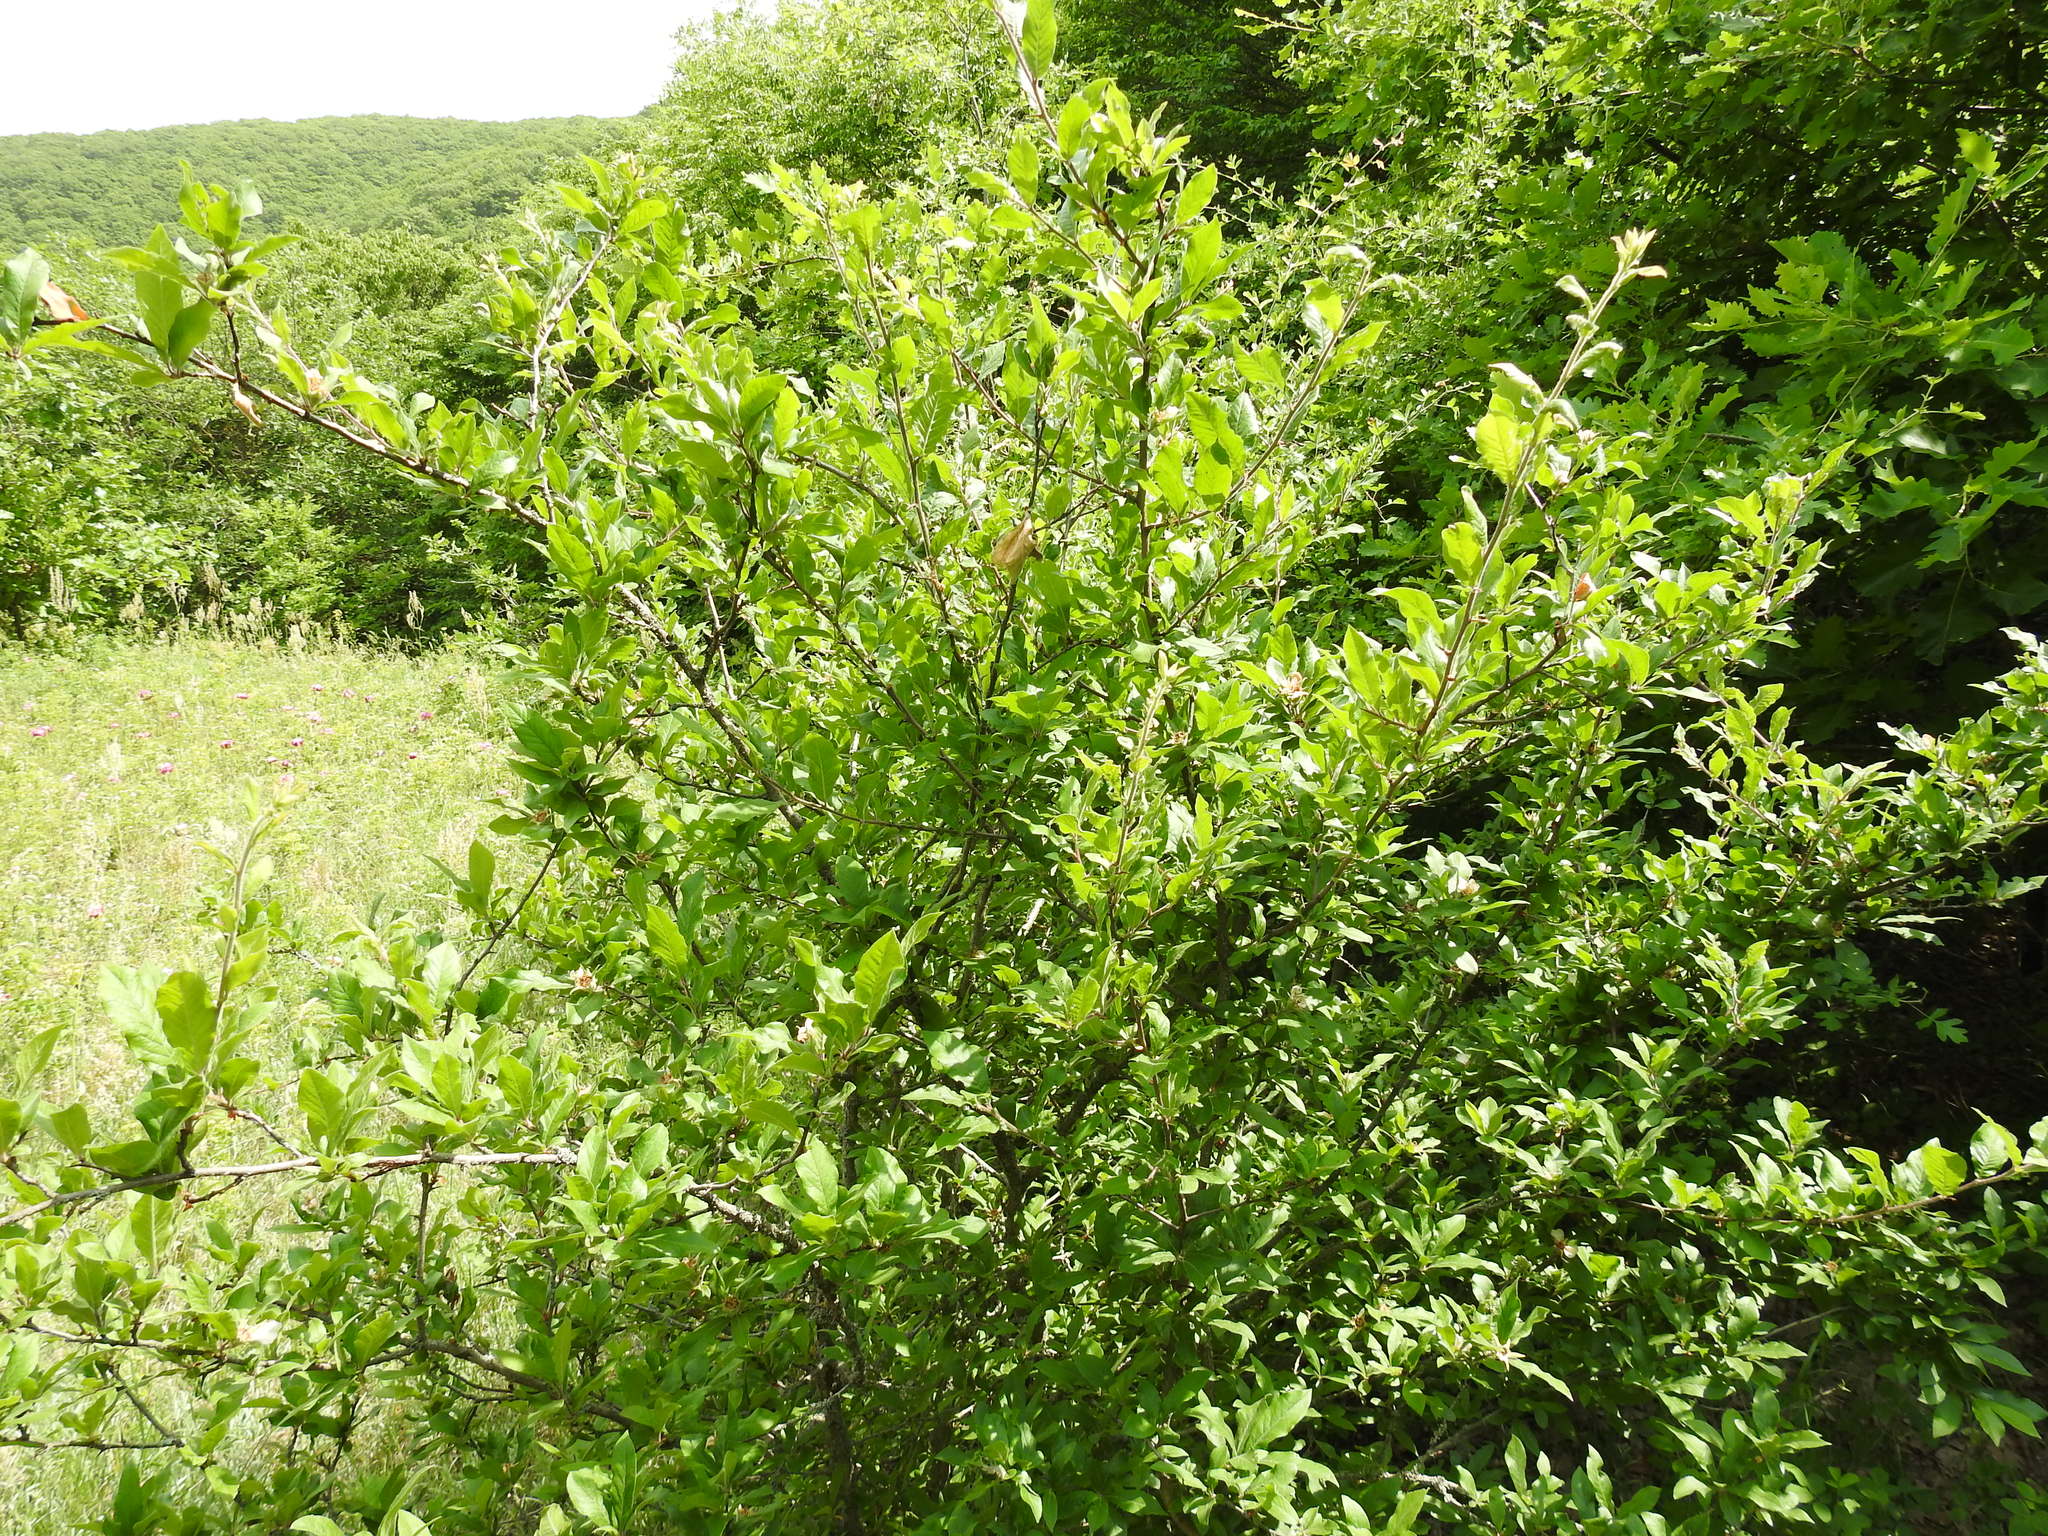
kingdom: Plantae
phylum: Tracheophyta
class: Magnoliopsida
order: Rosales
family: Rosaceae
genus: Mespilus
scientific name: Mespilus germanica
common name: Medlar
